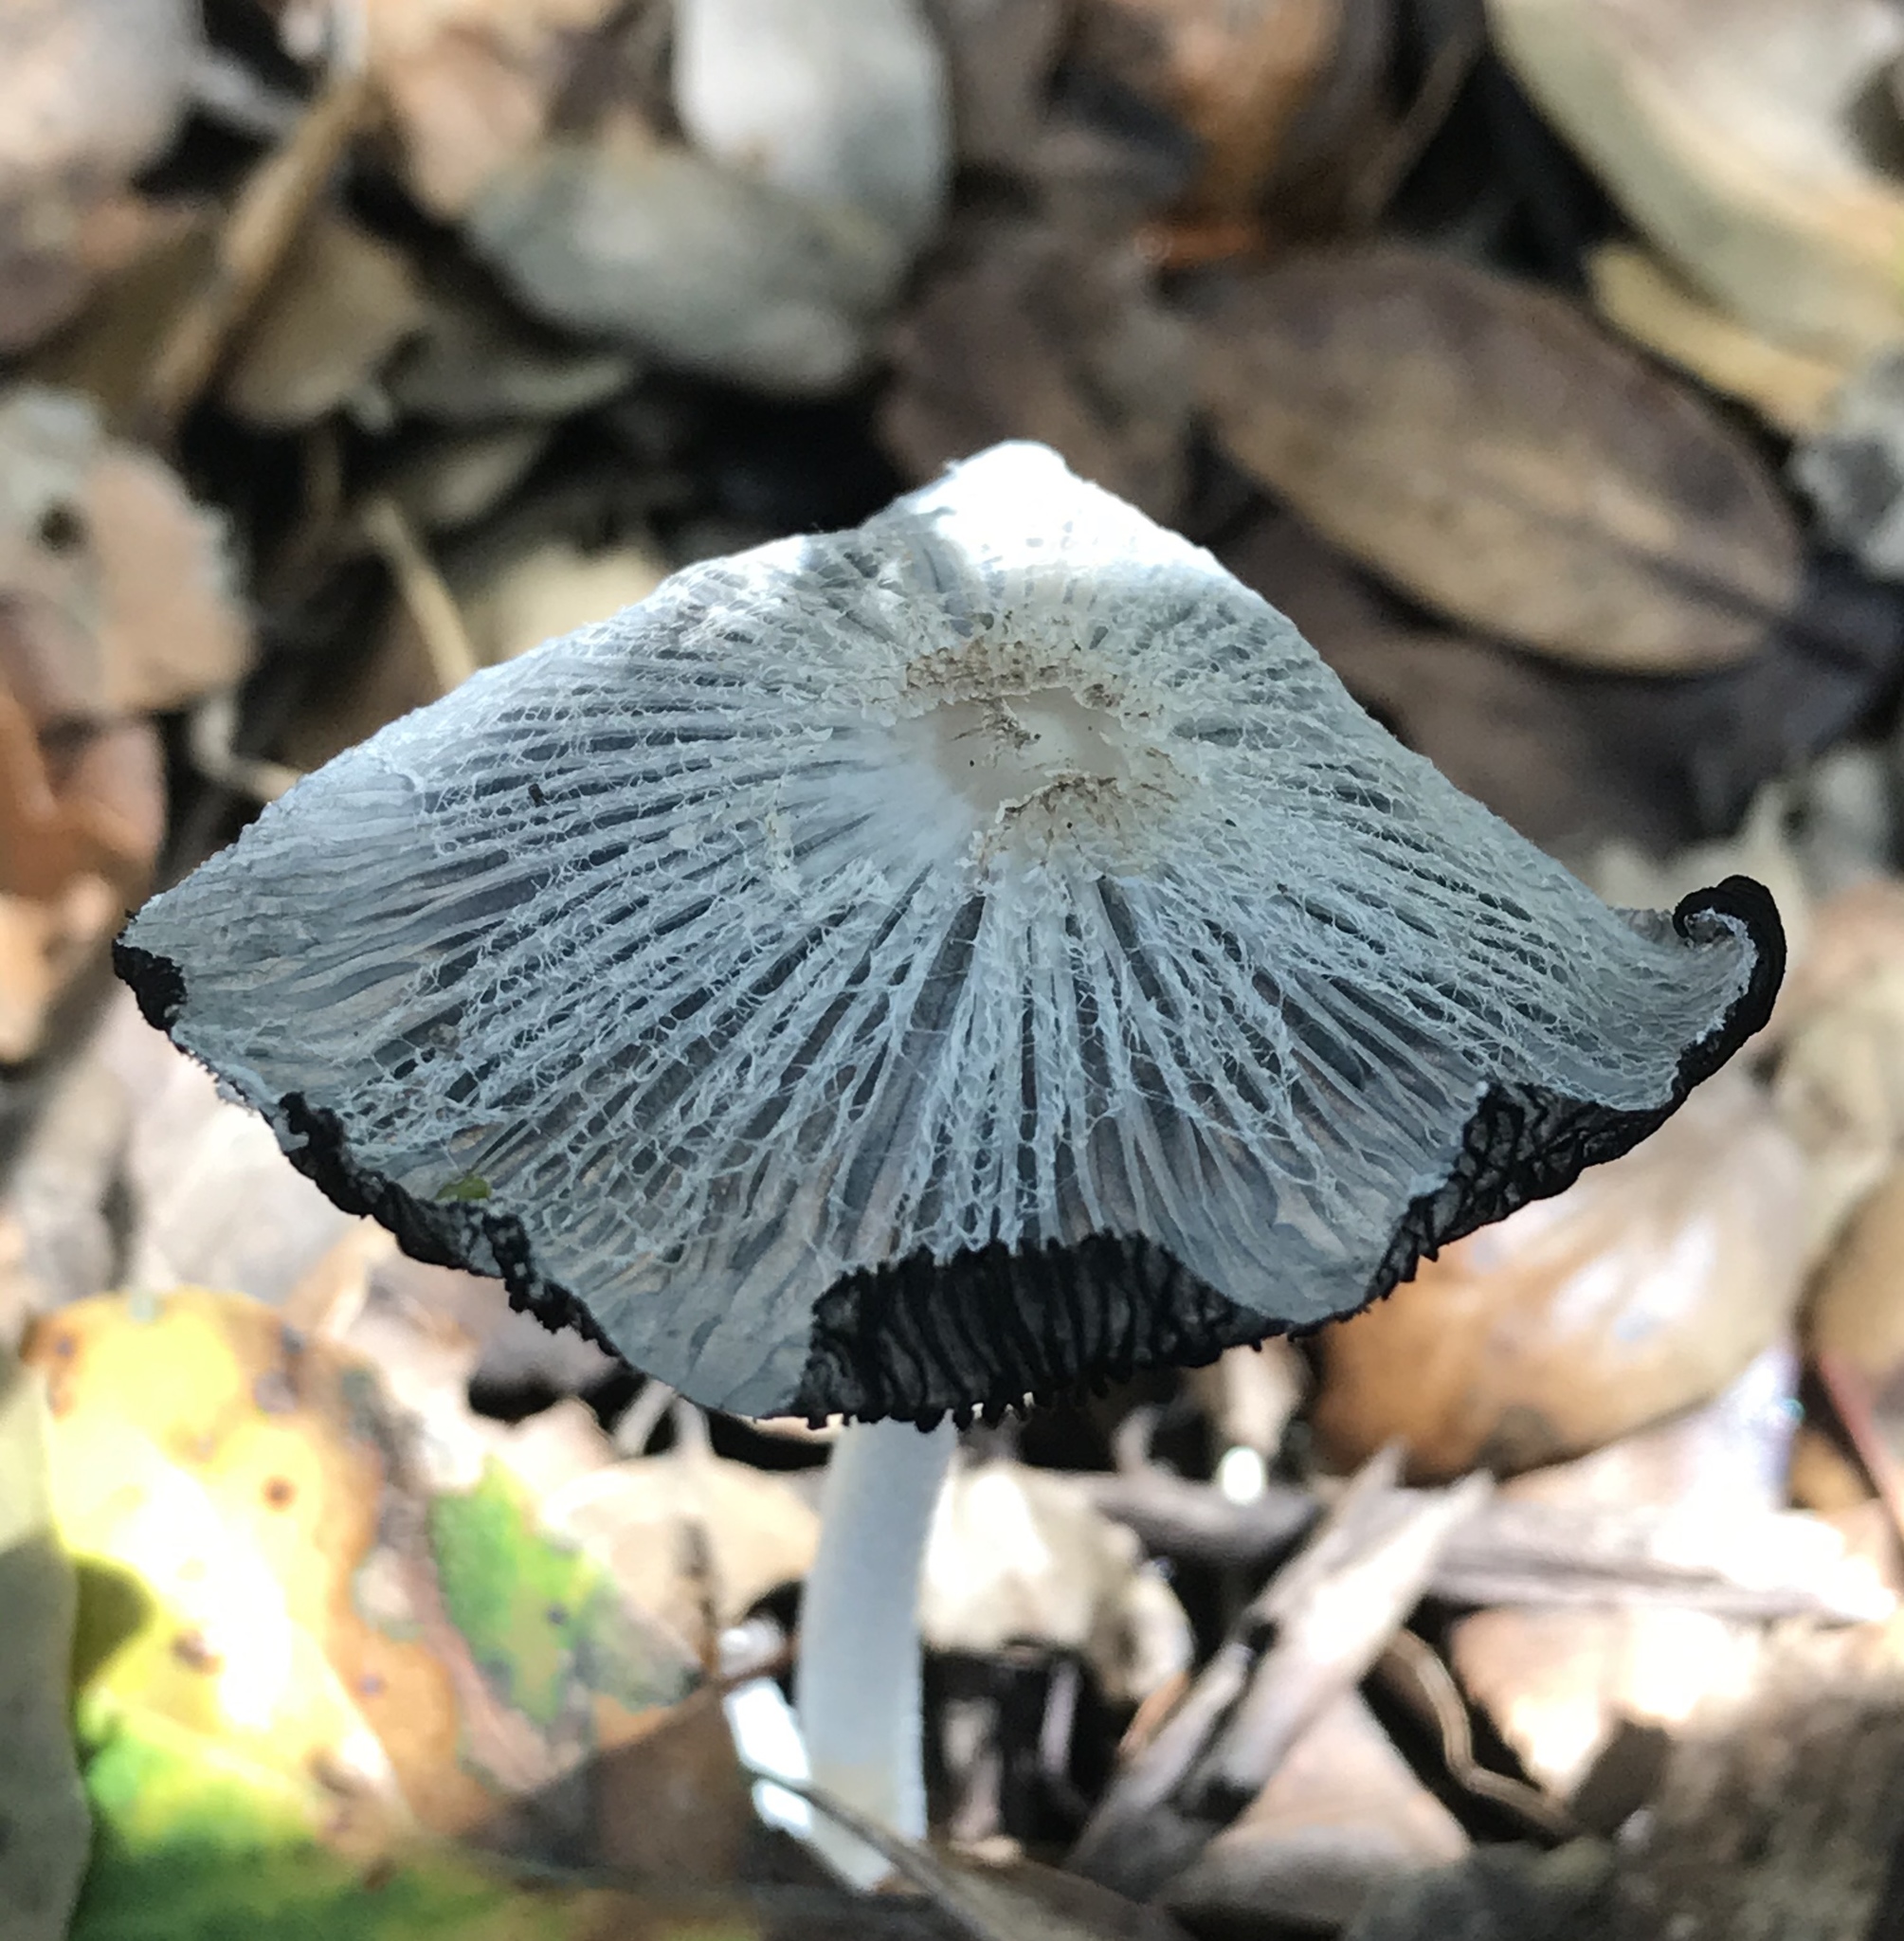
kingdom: Fungi
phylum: Basidiomycota
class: Agaricomycetes
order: Agaricales
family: Psathyrellaceae
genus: Coprinopsis
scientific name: Coprinopsis lagopus
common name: Hare'sfoot inkcap
